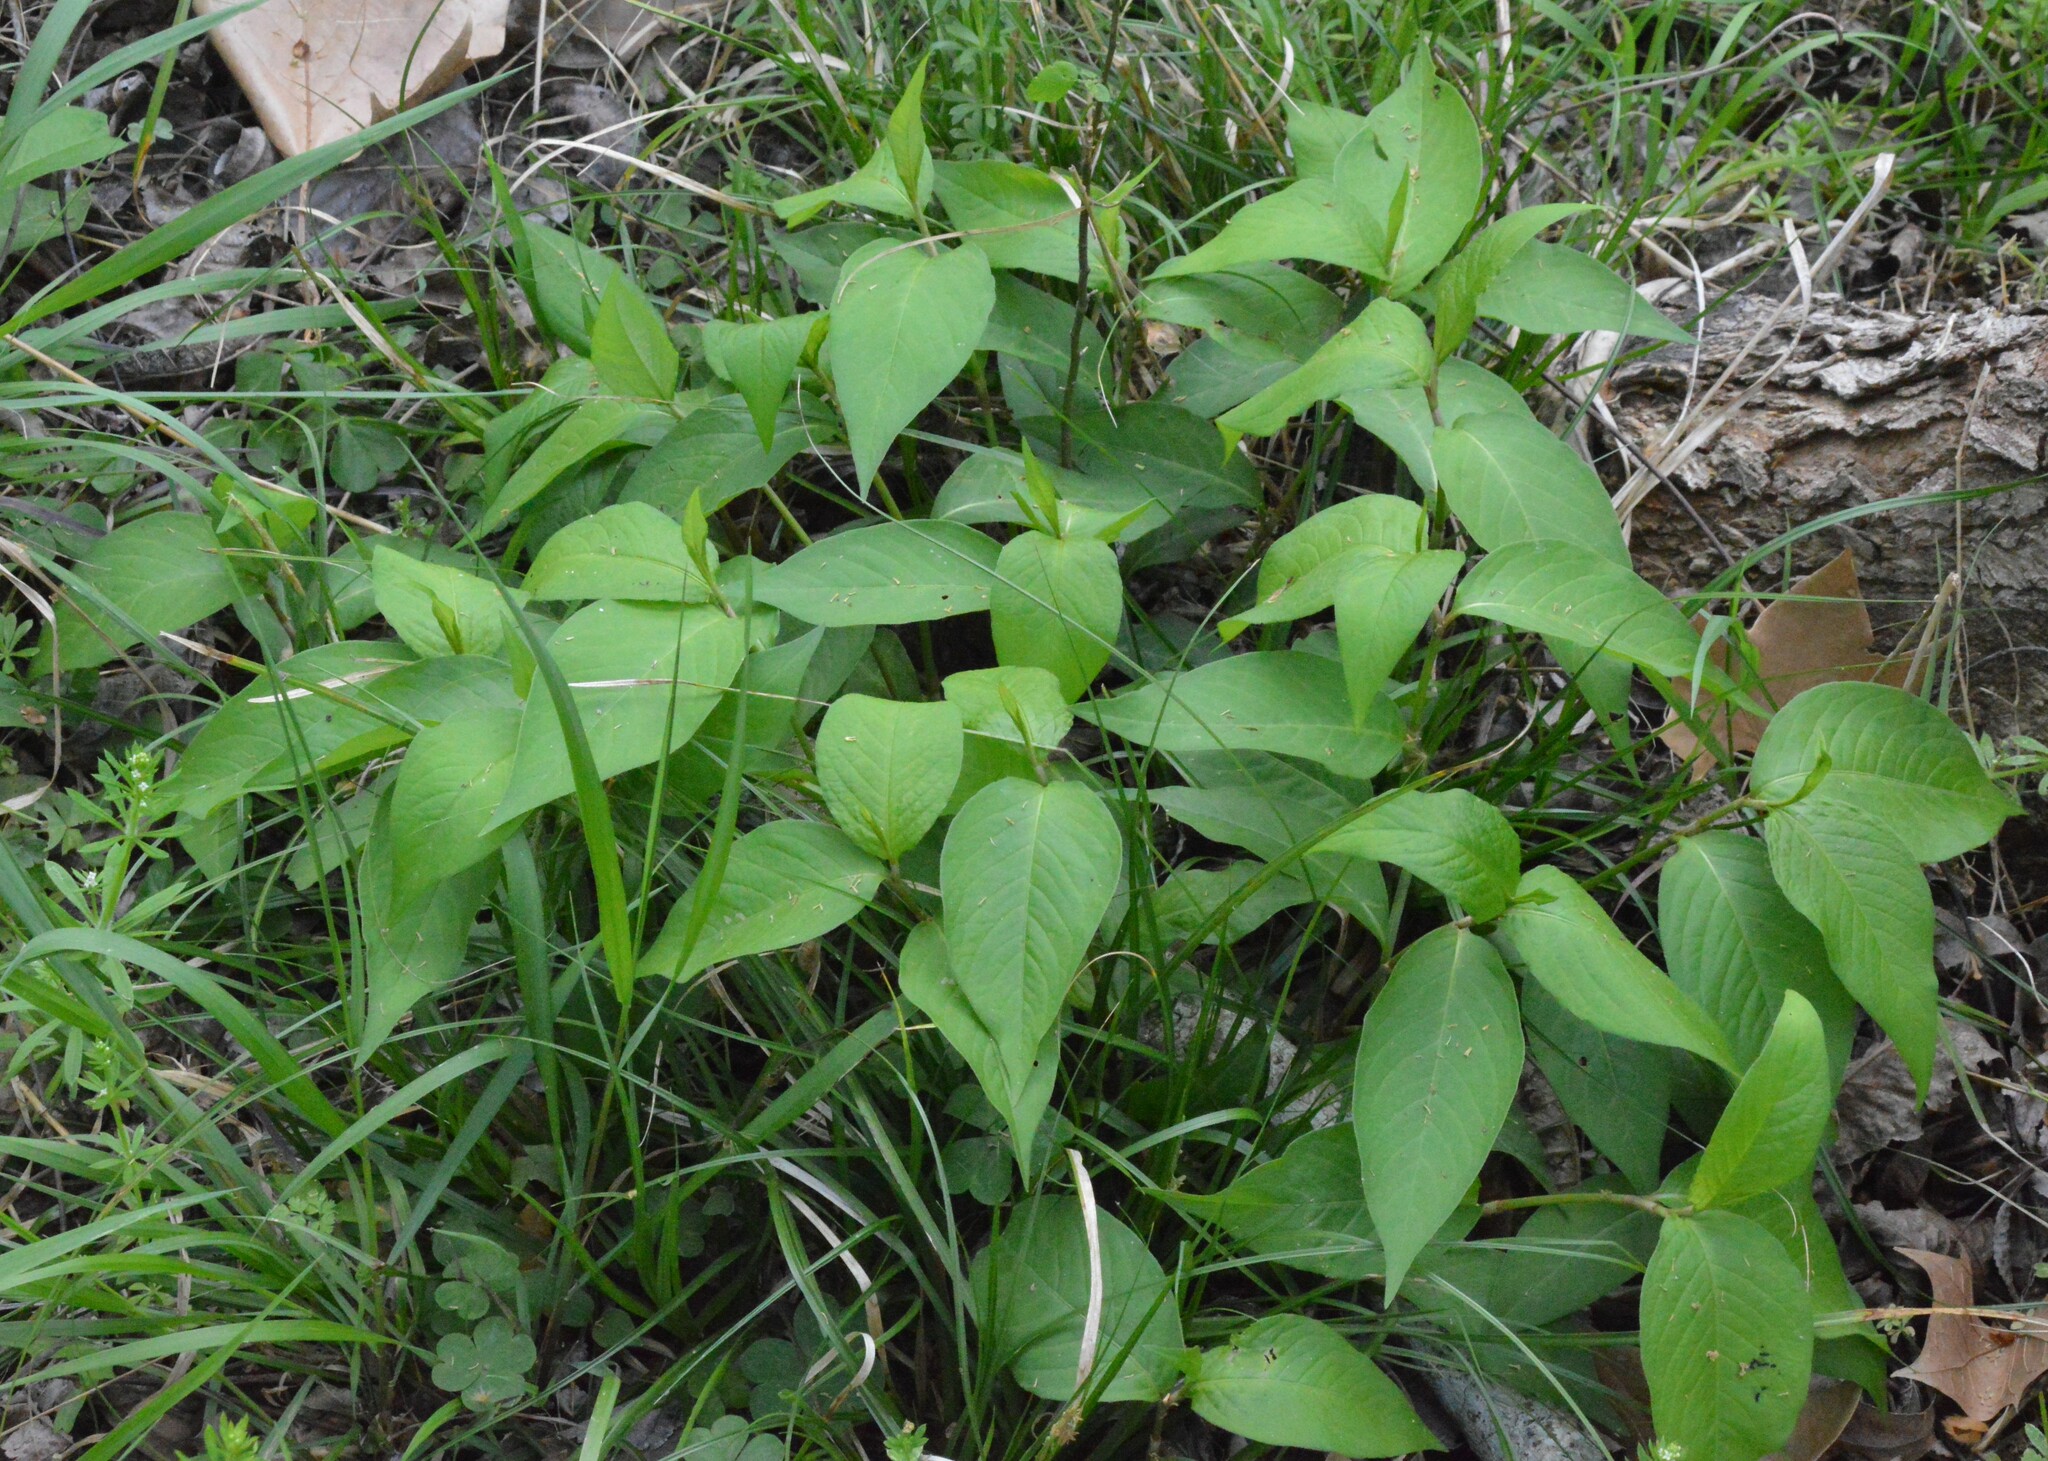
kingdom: Plantae
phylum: Tracheophyta
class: Magnoliopsida
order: Caryophyllales
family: Polygonaceae
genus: Persicaria
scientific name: Persicaria virginiana
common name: Jumpseed
